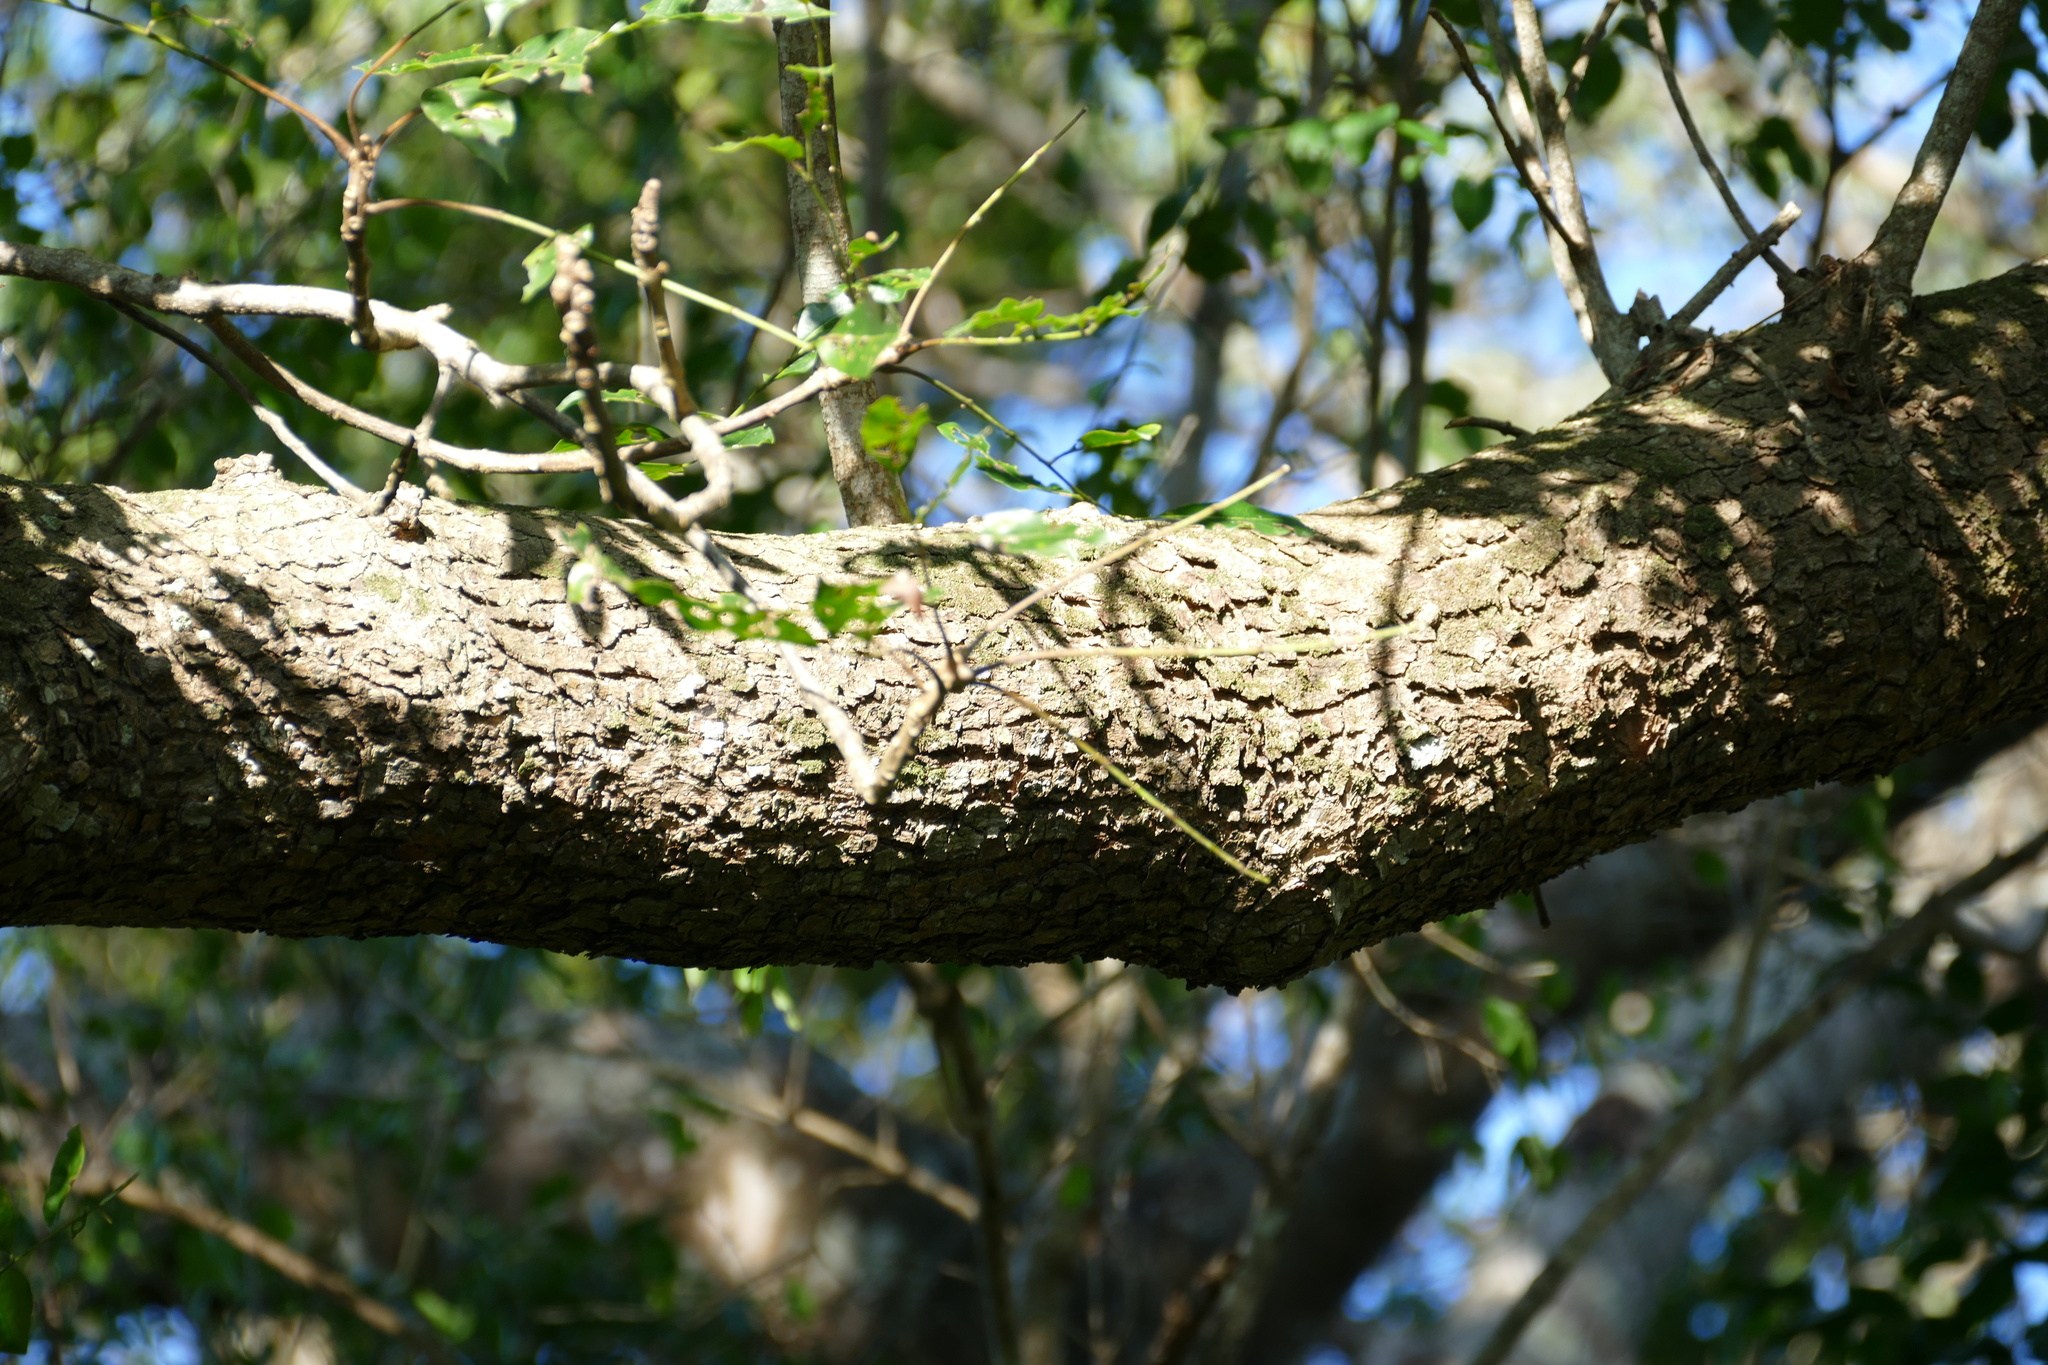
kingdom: Plantae
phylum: Tracheophyta
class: Magnoliopsida
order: Sapindales
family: Anacardiaceae
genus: Sclerocarya
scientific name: Sclerocarya birrea
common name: Marula
